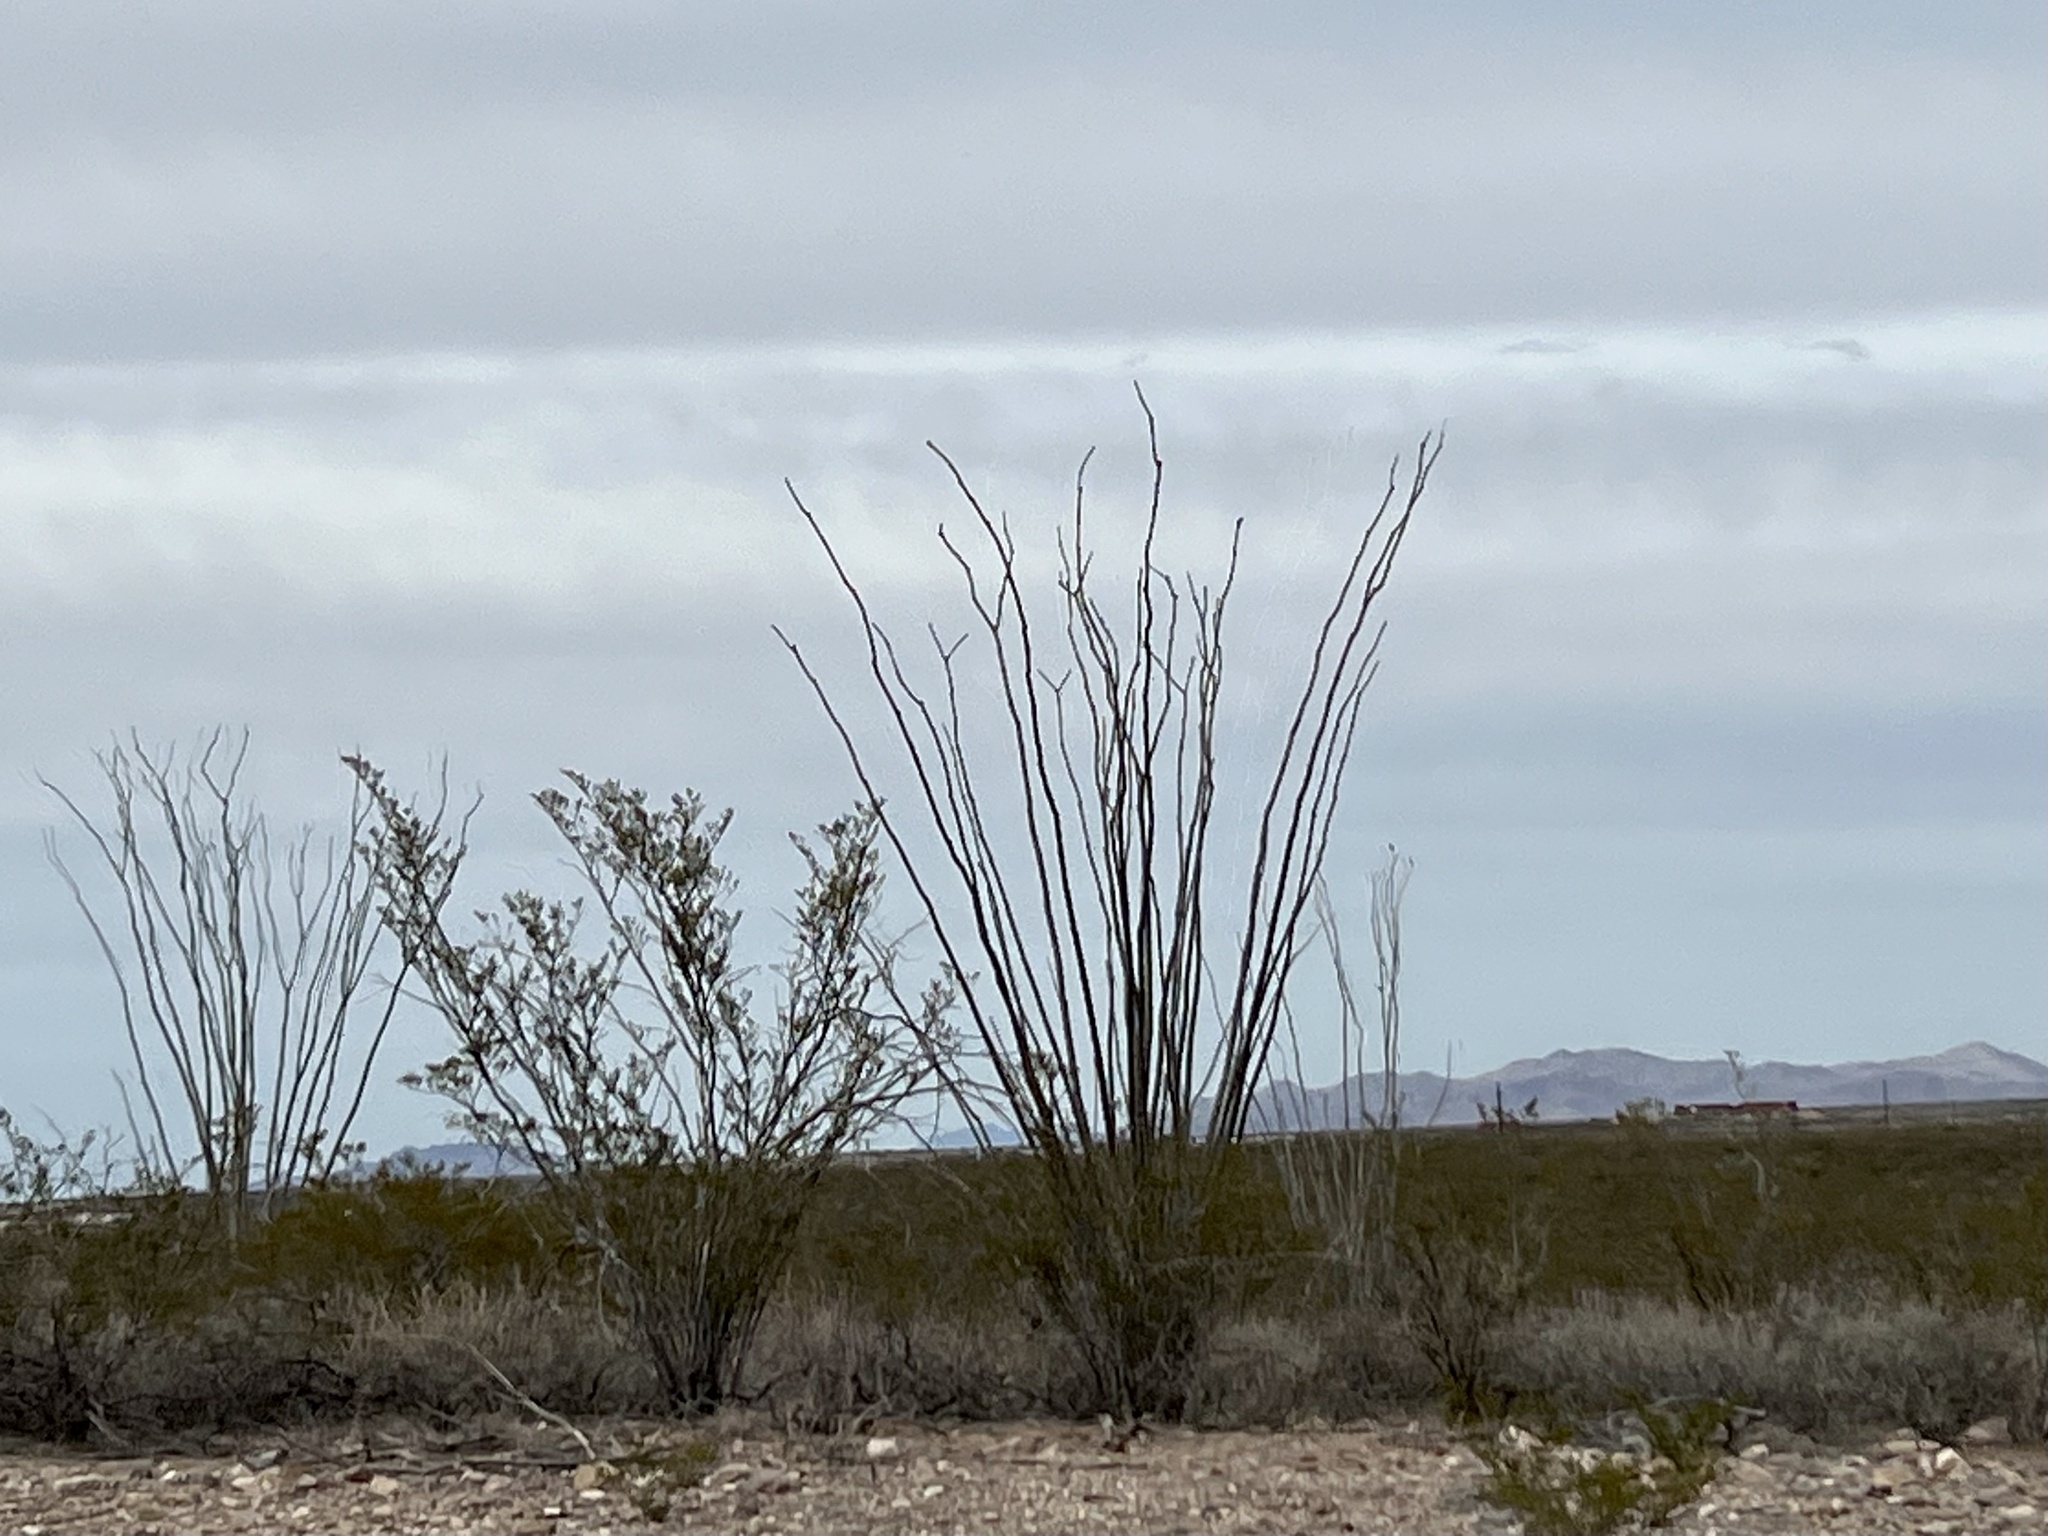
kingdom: Plantae
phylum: Tracheophyta
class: Magnoliopsida
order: Ericales
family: Fouquieriaceae
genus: Fouquieria
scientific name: Fouquieria splendens
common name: Vine-cactus
